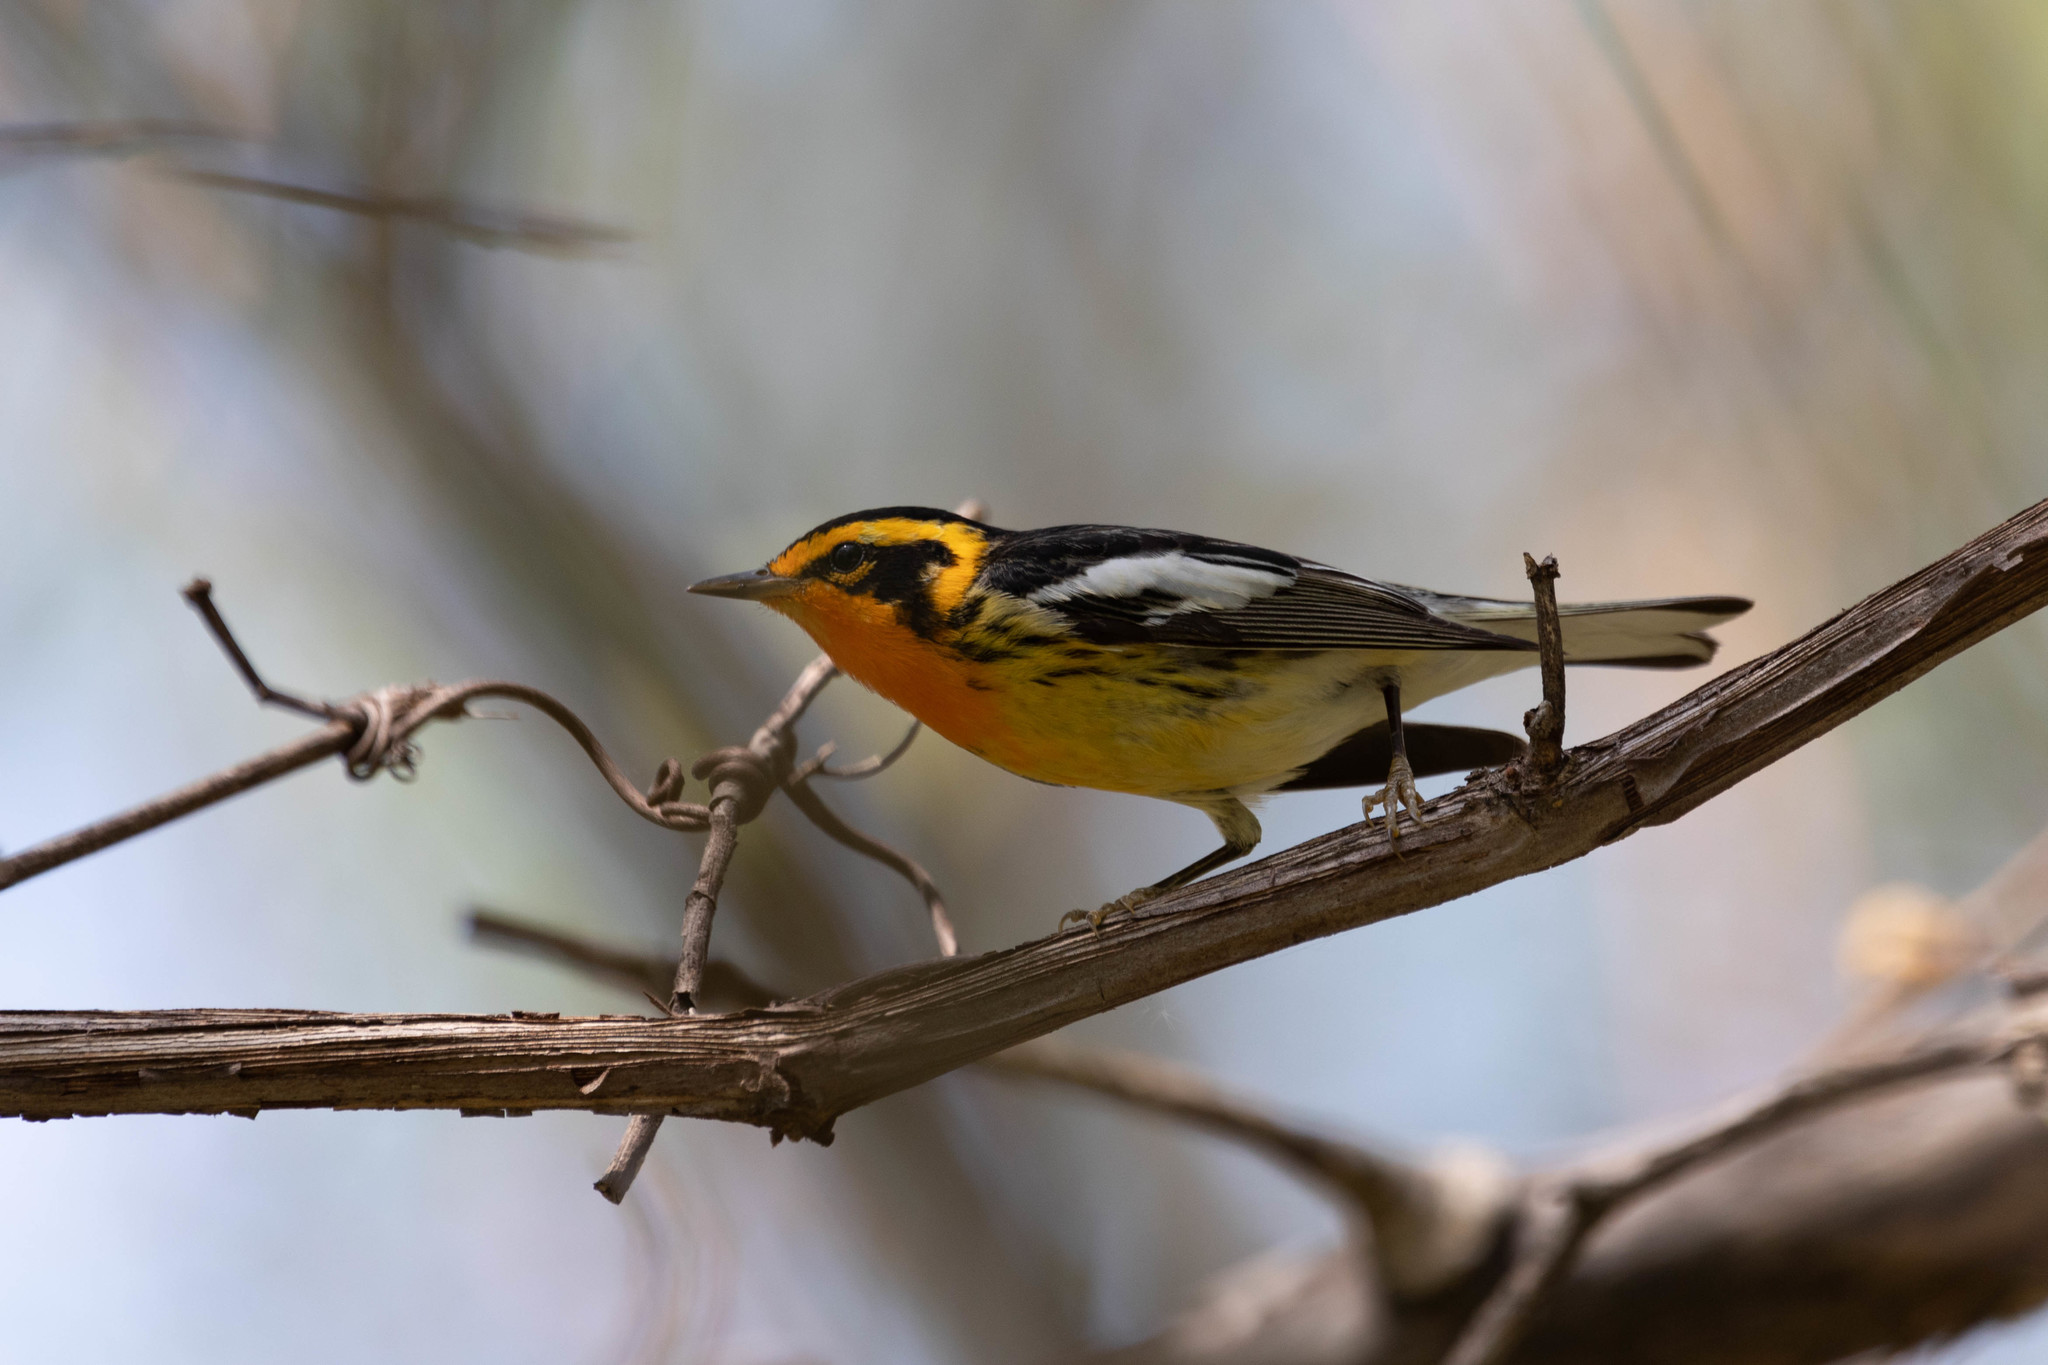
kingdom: Animalia
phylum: Chordata
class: Aves
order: Passeriformes
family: Parulidae
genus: Setophaga
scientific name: Setophaga fusca
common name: Blackburnian warbler
